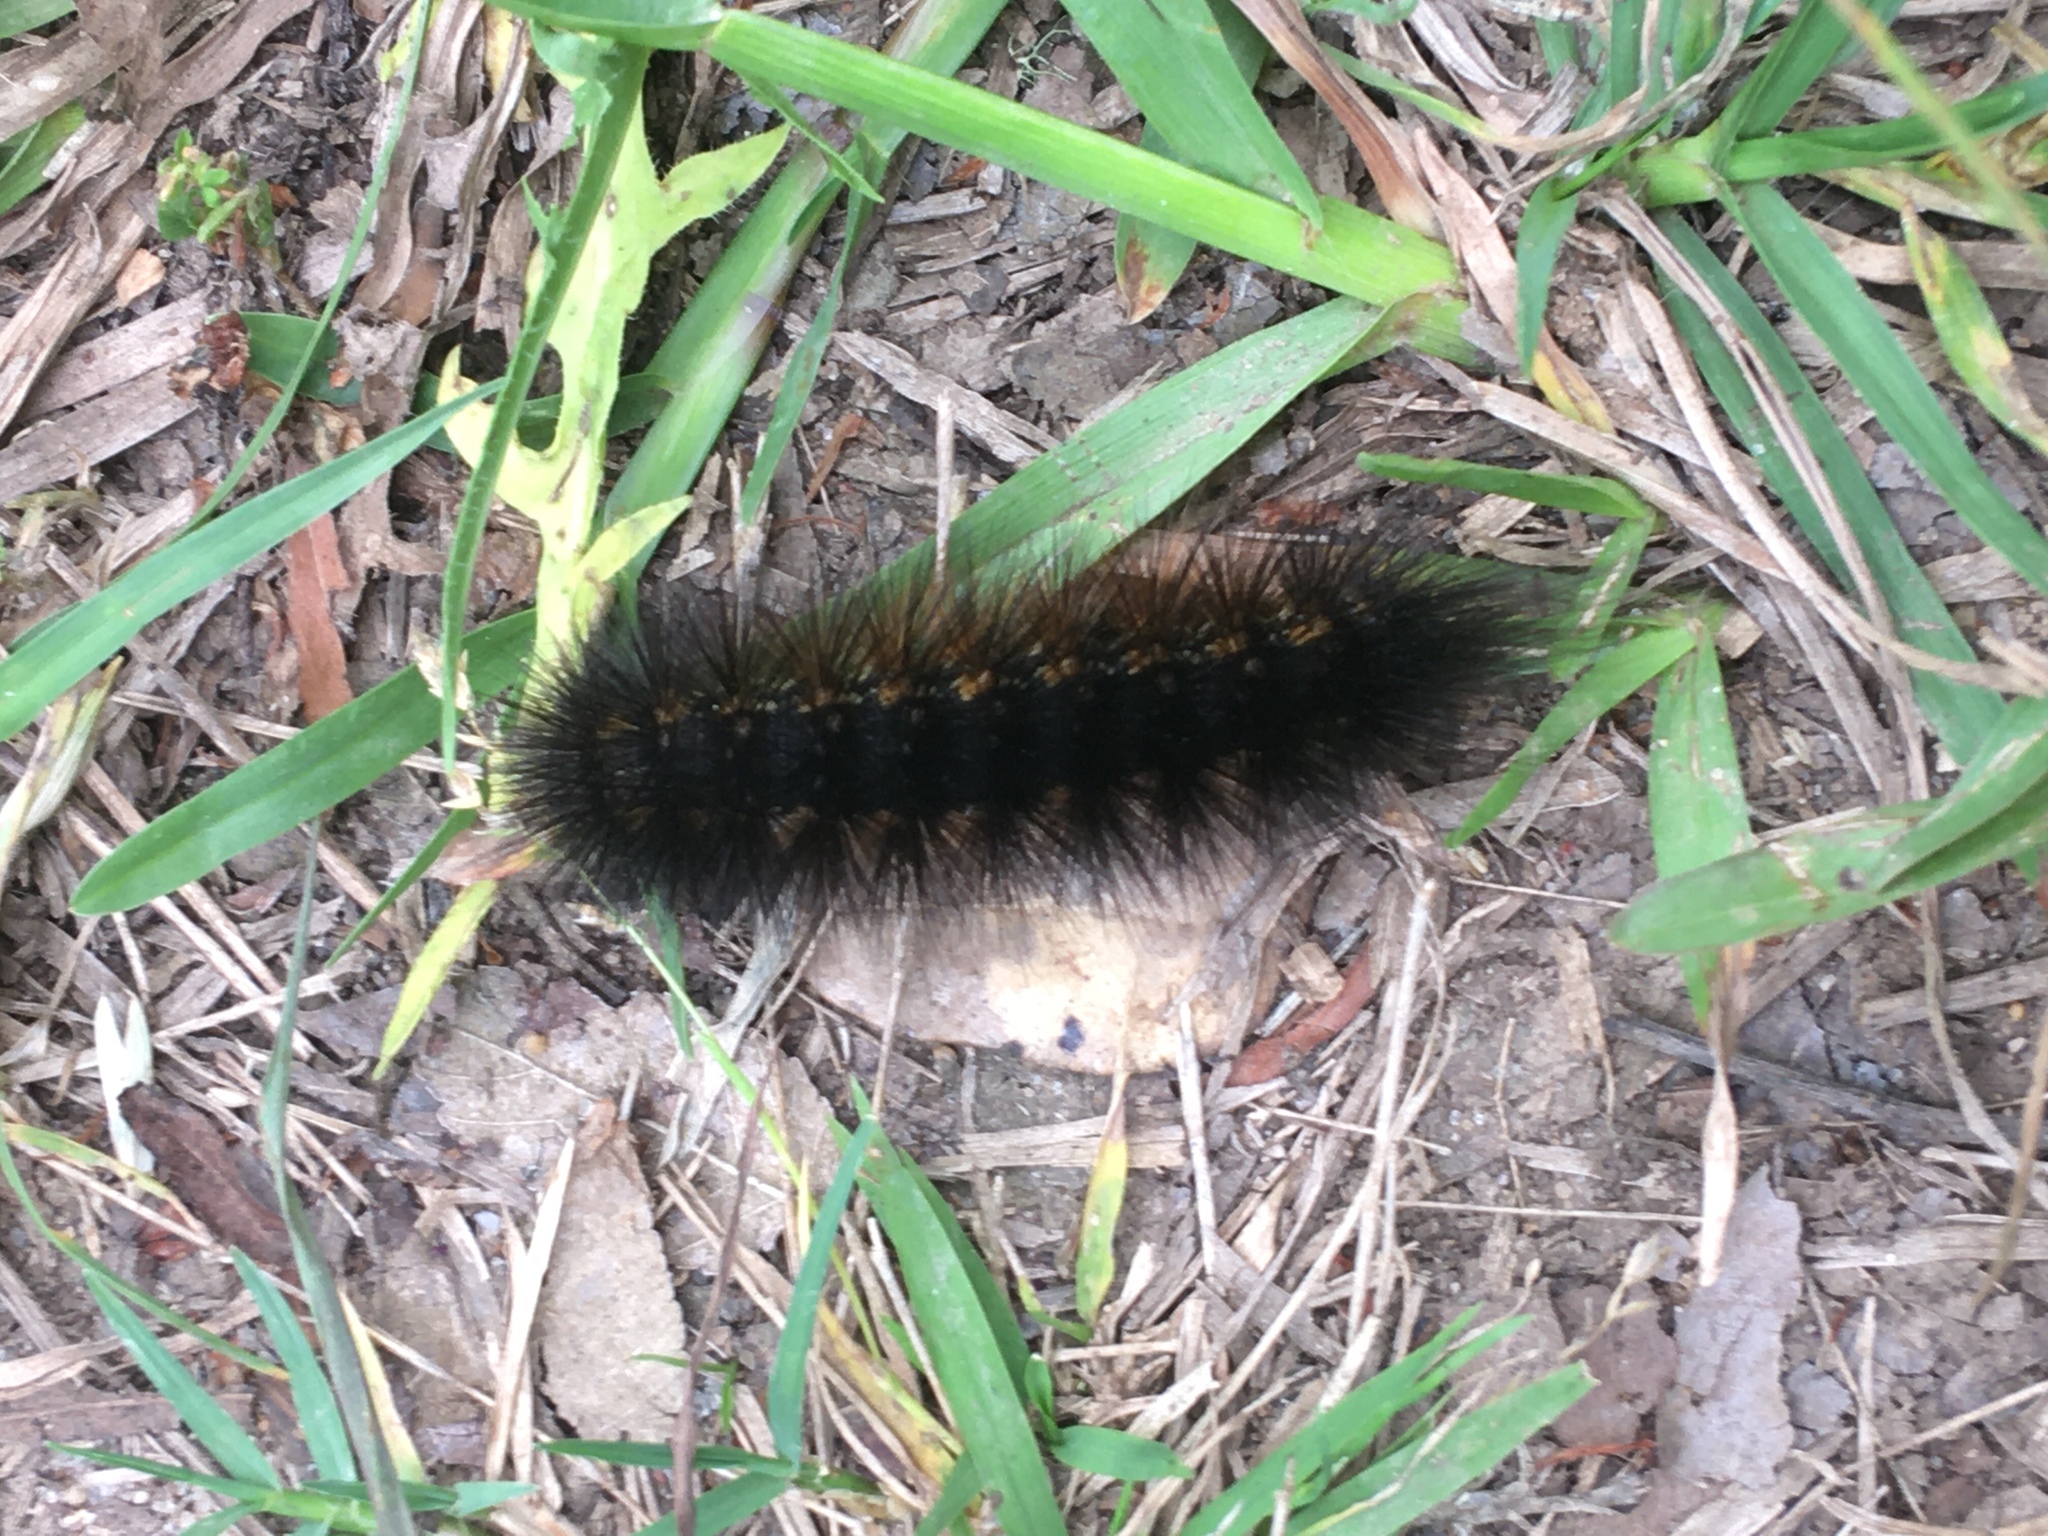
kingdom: Animalia
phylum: Arthropoda
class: Insecta
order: Lepidoptera
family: Erebidae
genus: Estigmene
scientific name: Estigmene acrea
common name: Salt marsh moth
